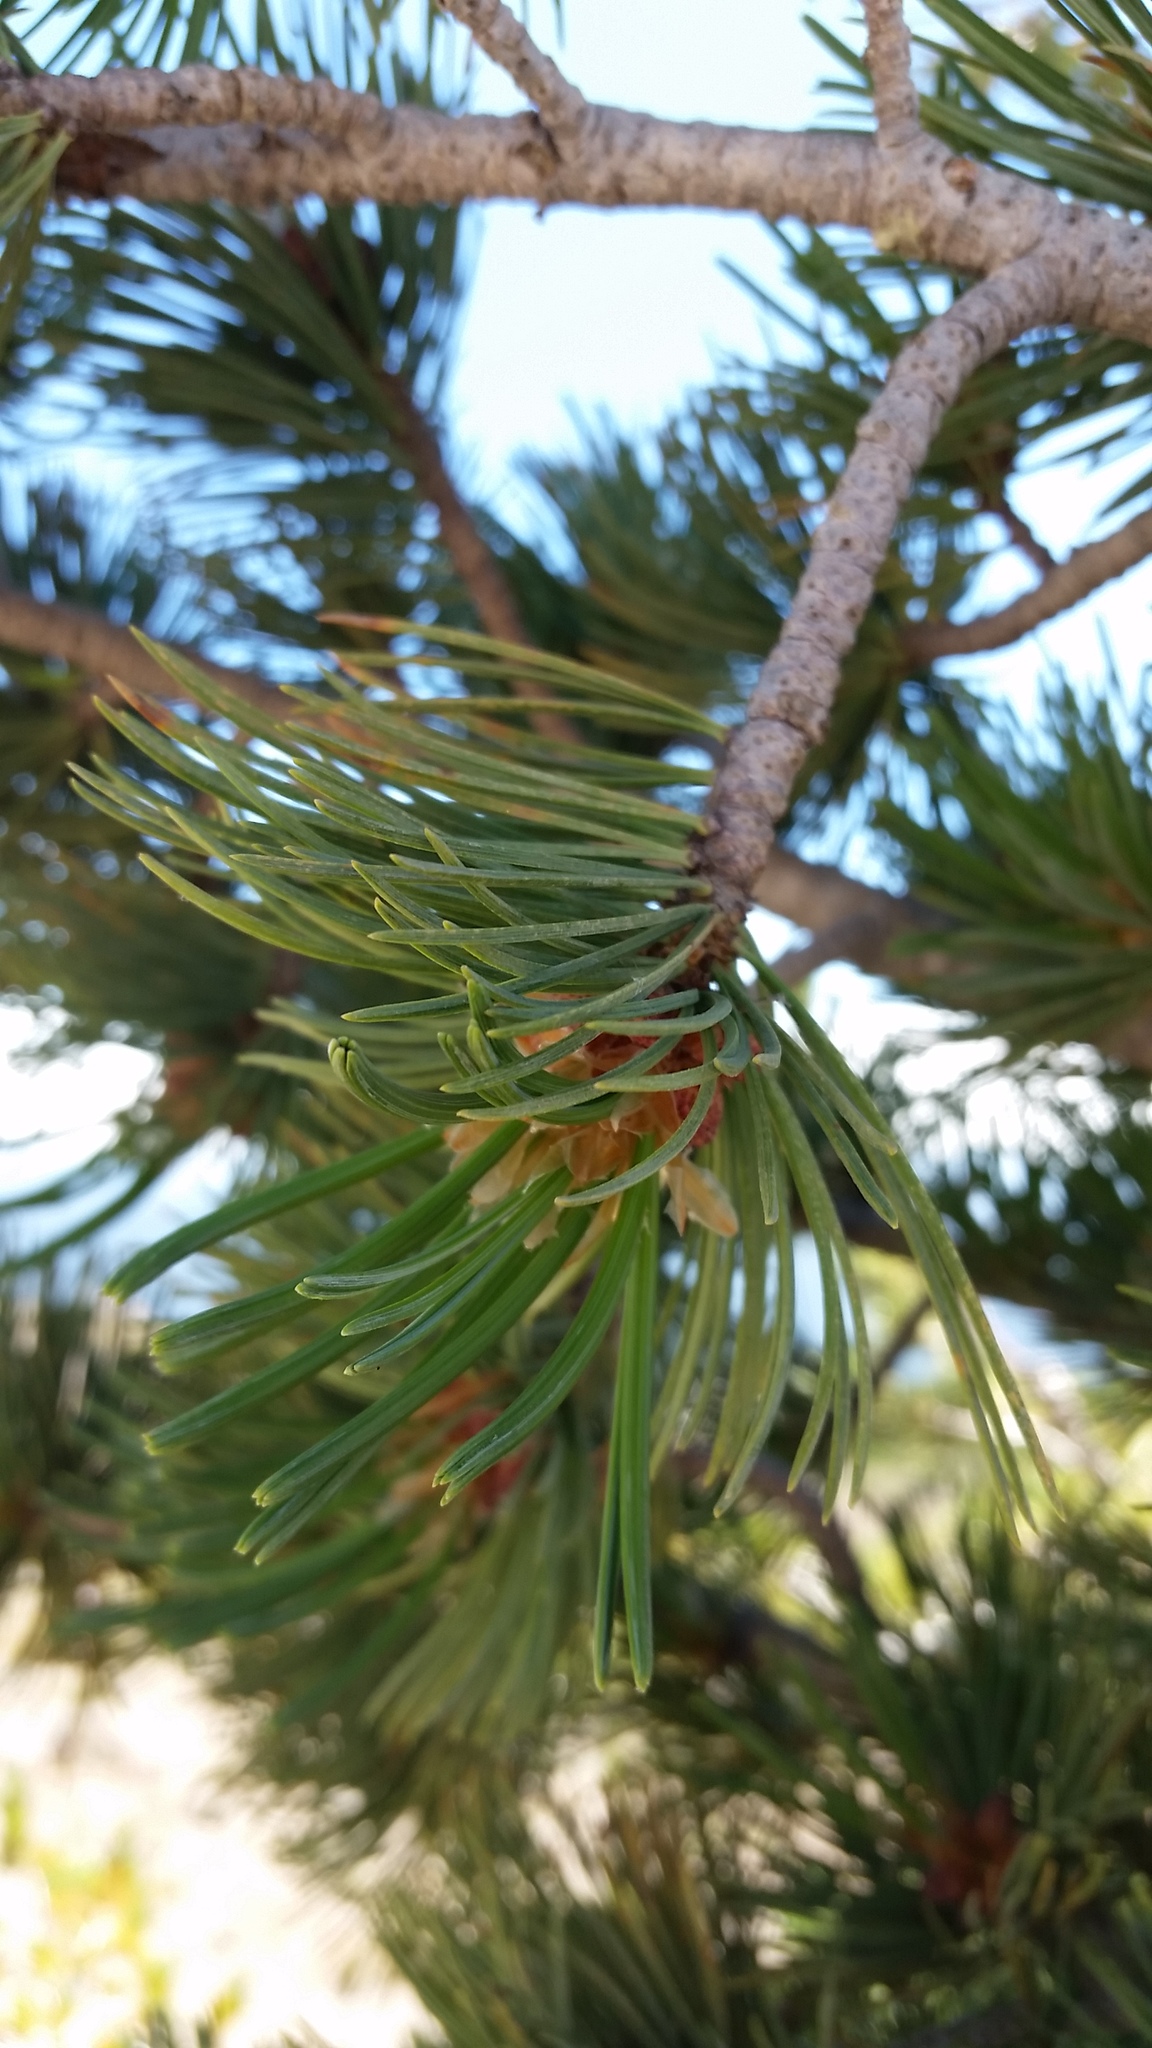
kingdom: Plantae
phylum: Tracheophyta
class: Pinopsida
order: Pinales
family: Pinaceae
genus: Pinus
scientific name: Pinus albicaulis
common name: Whitebark pine
